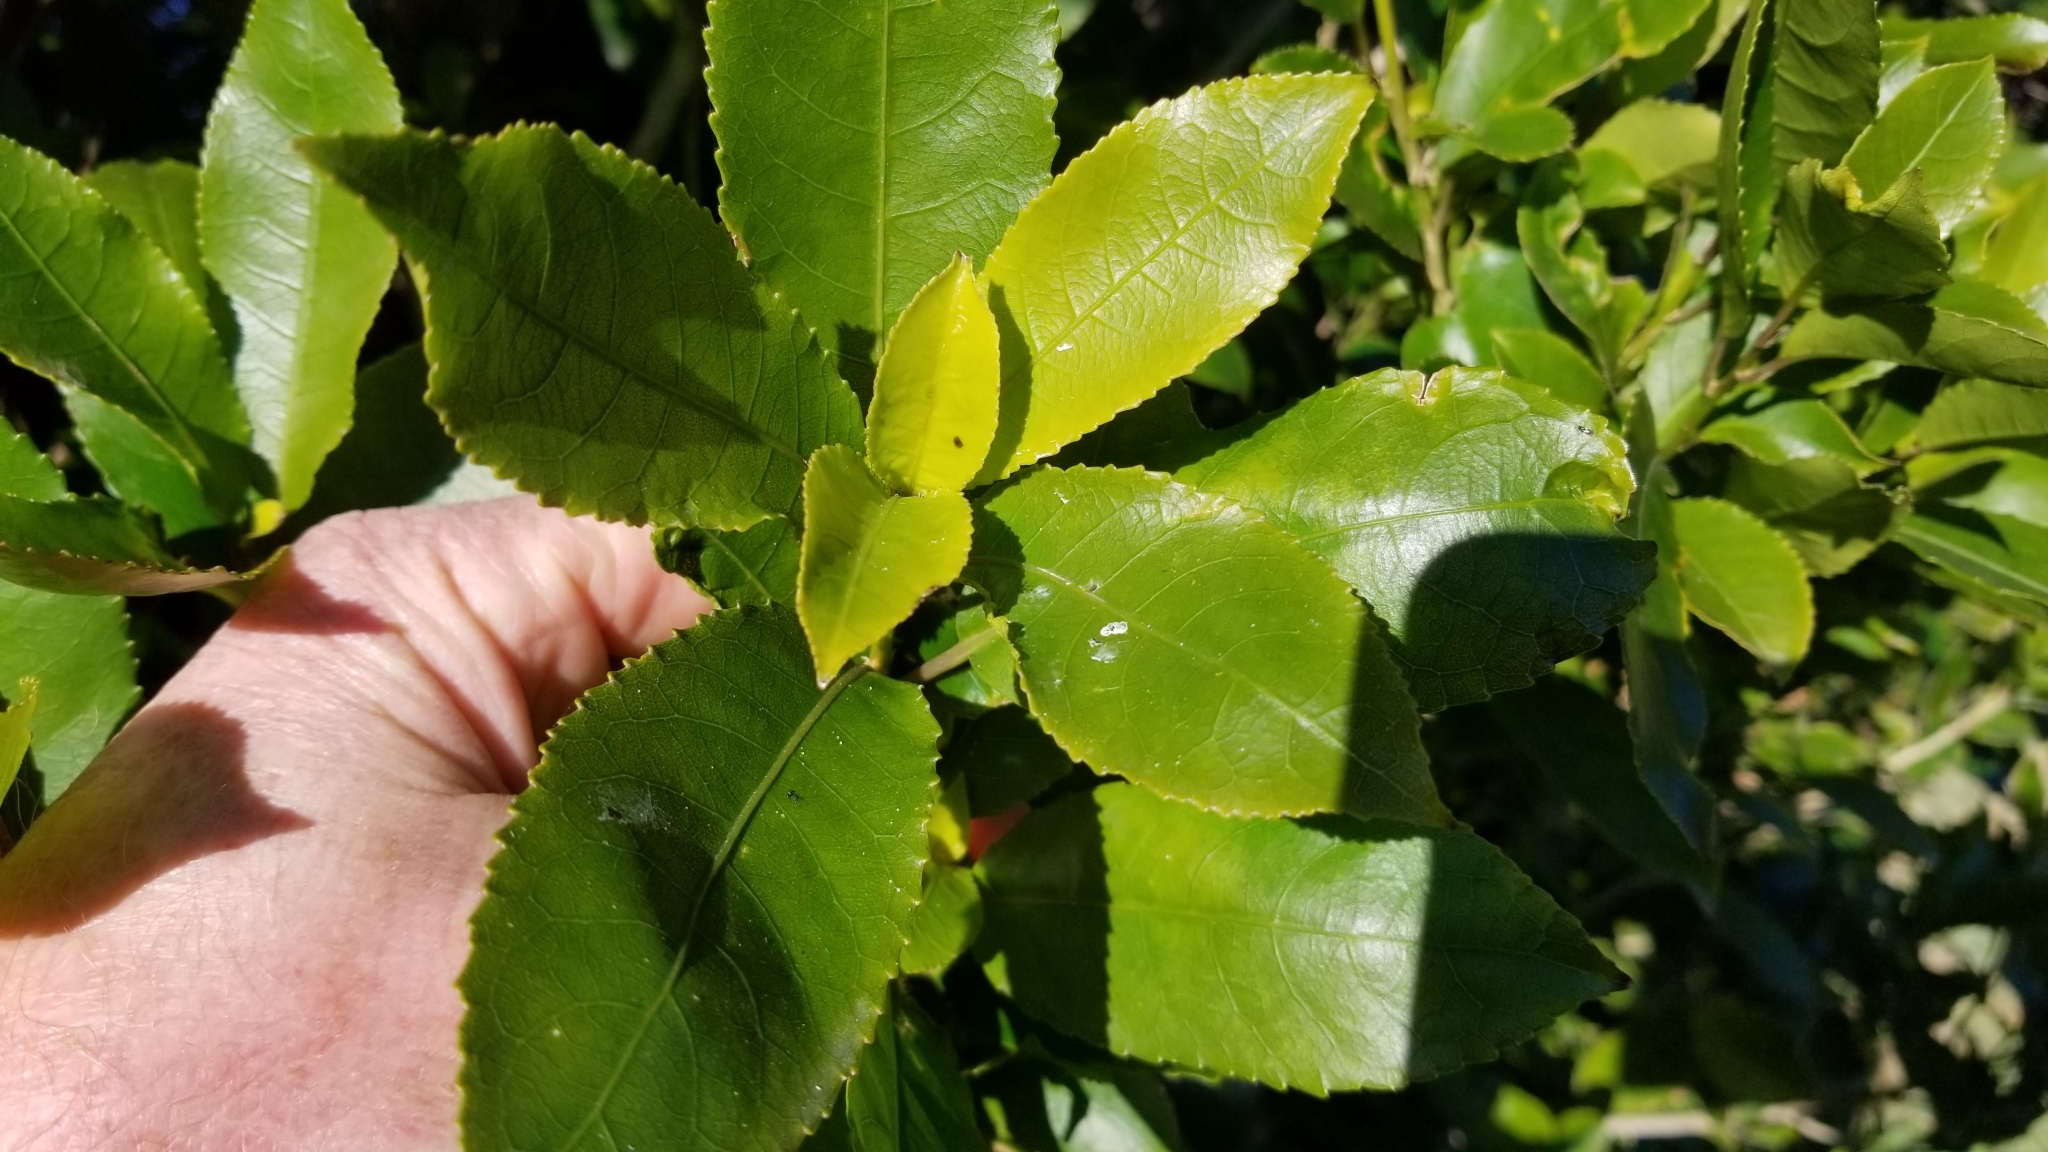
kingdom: Plantae
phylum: Tracheophyta
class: Magnoliopsida
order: Malpighiales
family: Violaceae
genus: Melicytus
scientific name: Melicytus ramiflorus
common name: Mahoe
